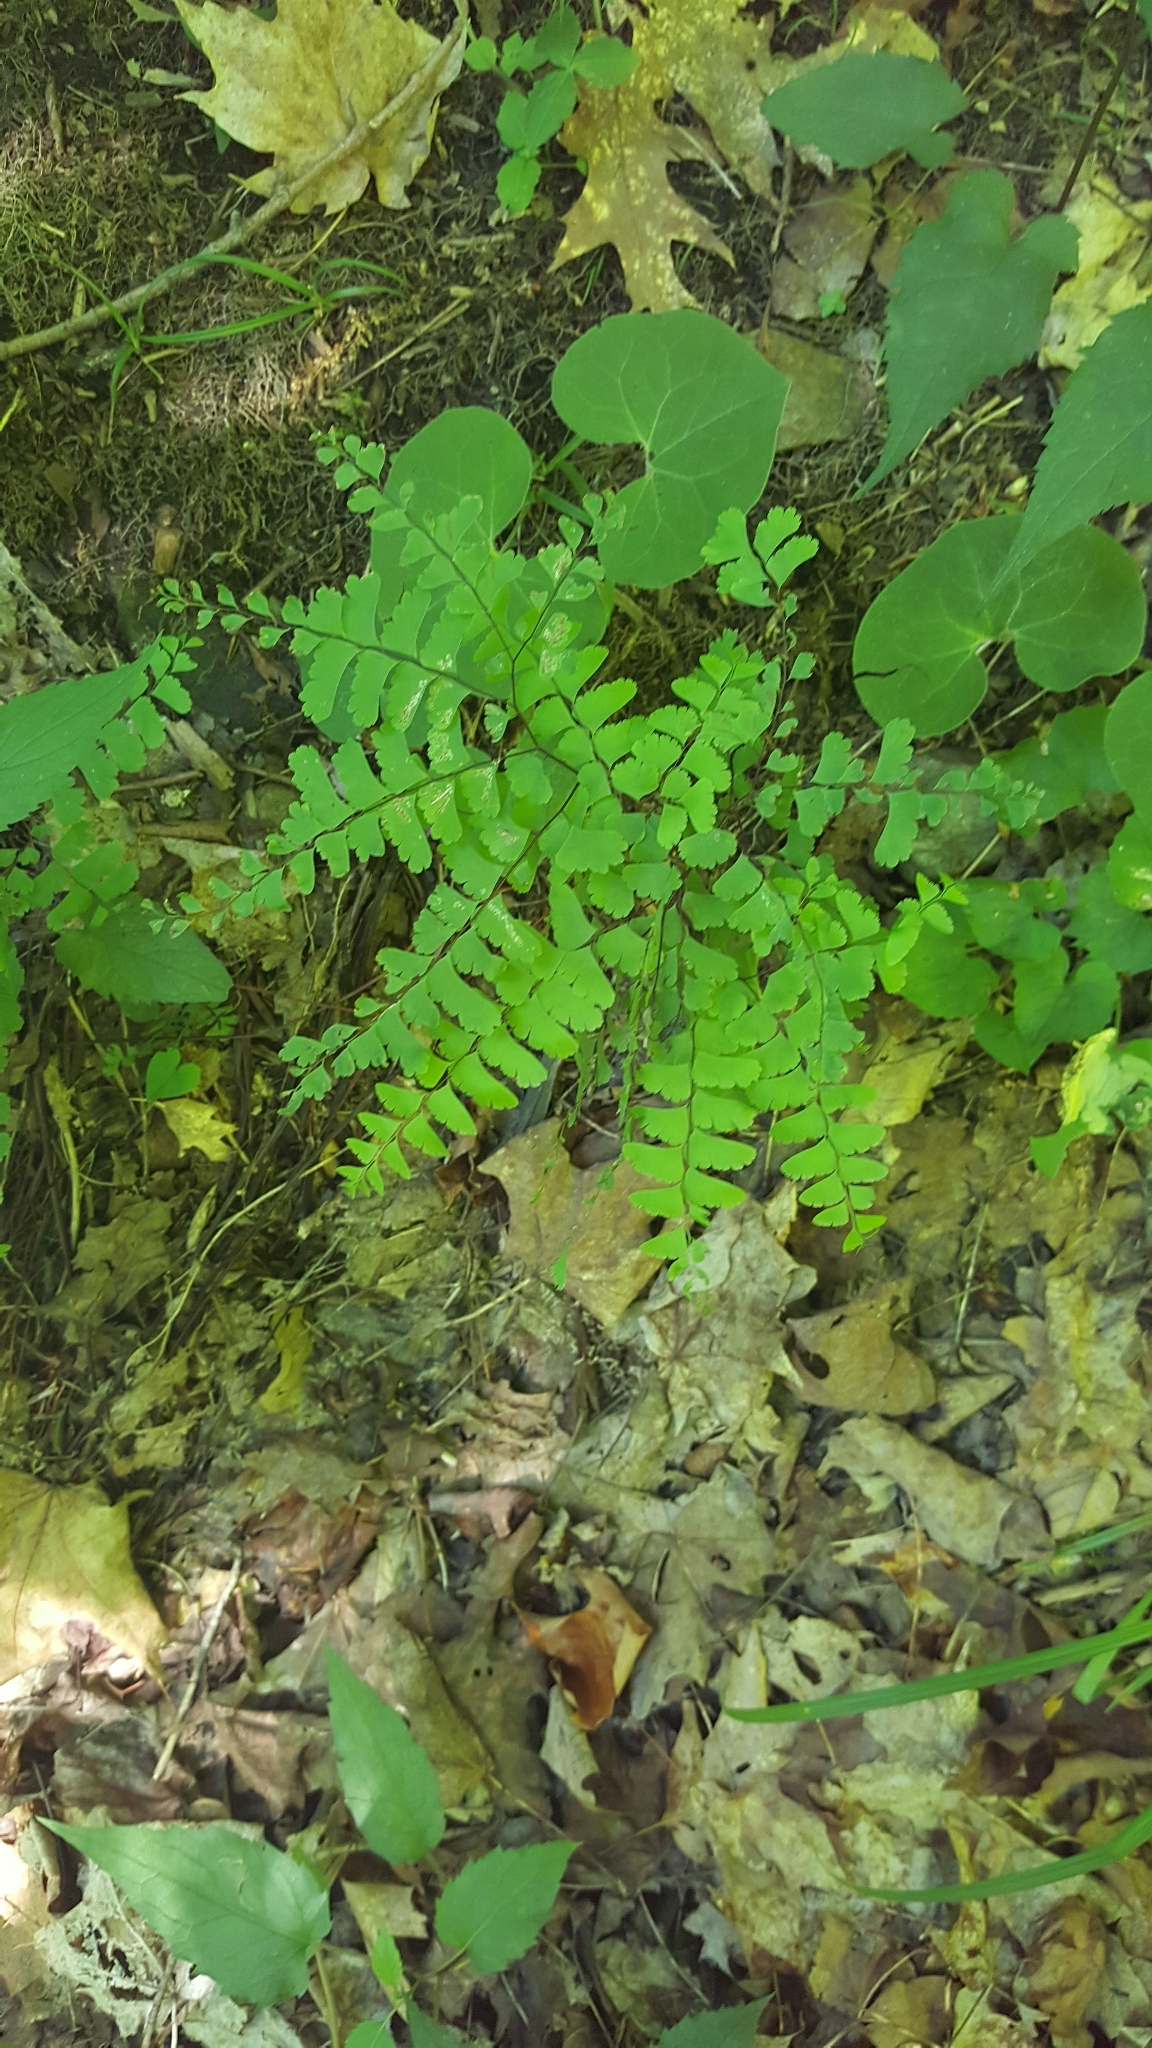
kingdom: Plantae
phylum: Tracheophyta
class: Polypodiopsida
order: Polypodiales
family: Pteridaceae
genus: Adiantum
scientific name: Adiantum pedatum
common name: Five-finger fern
